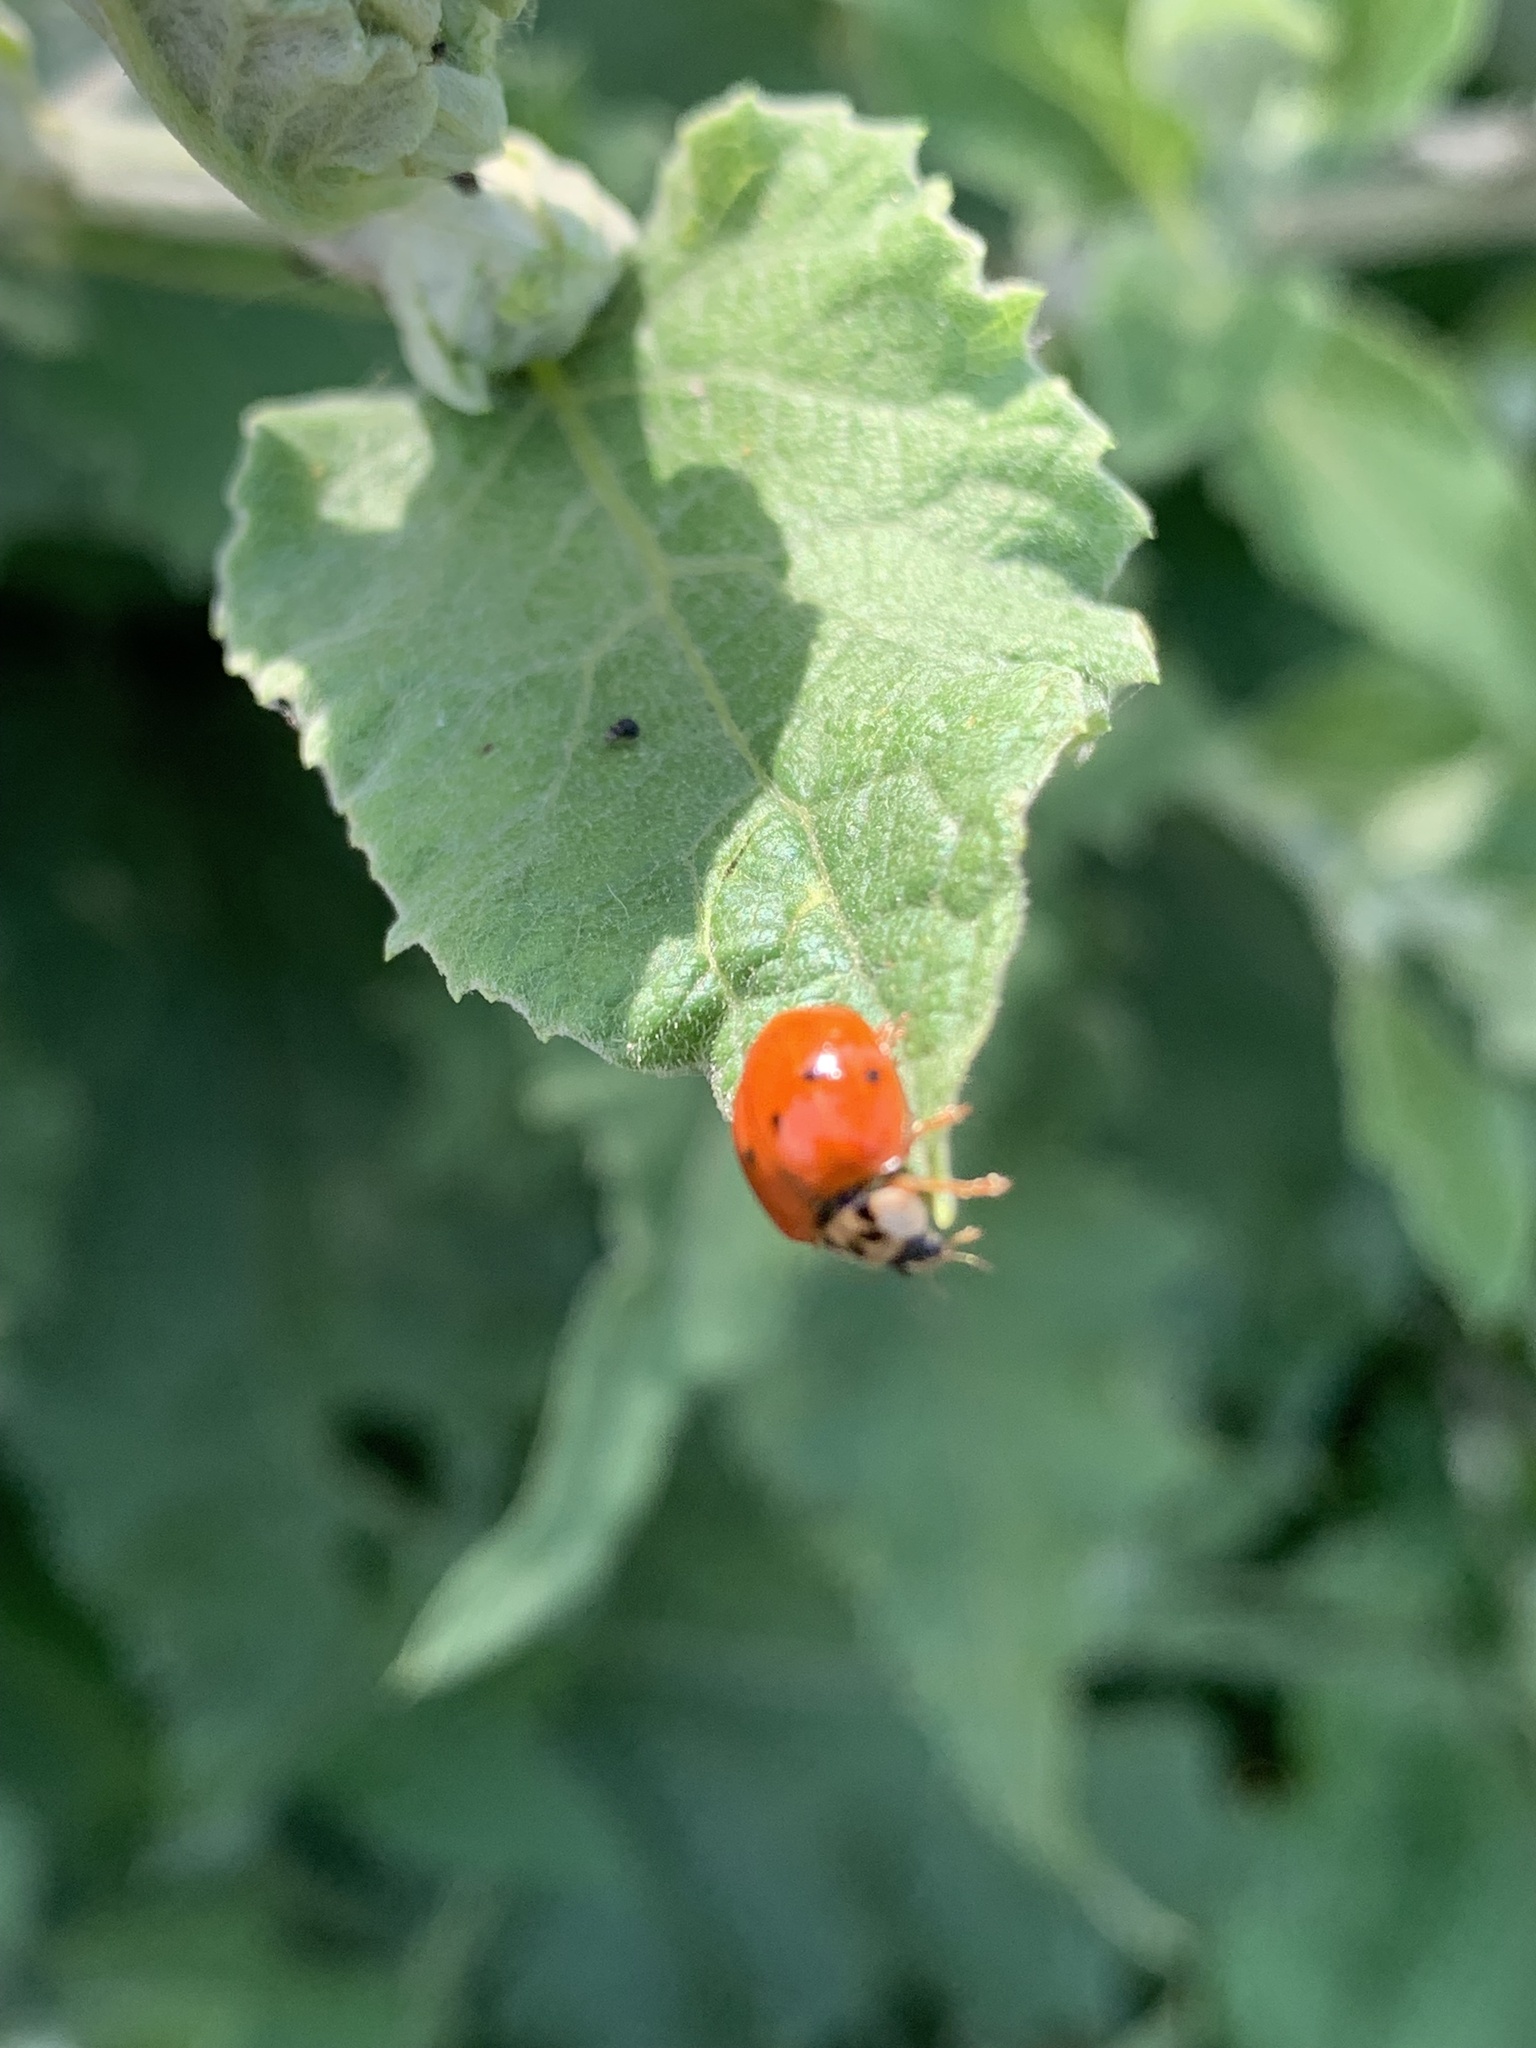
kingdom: Animalia
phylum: Arthropoda
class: Insecta
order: Coleoptera
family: Coccinellidae
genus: Harmonia
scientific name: Harmonia axyridis
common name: Harlequin ladybird
